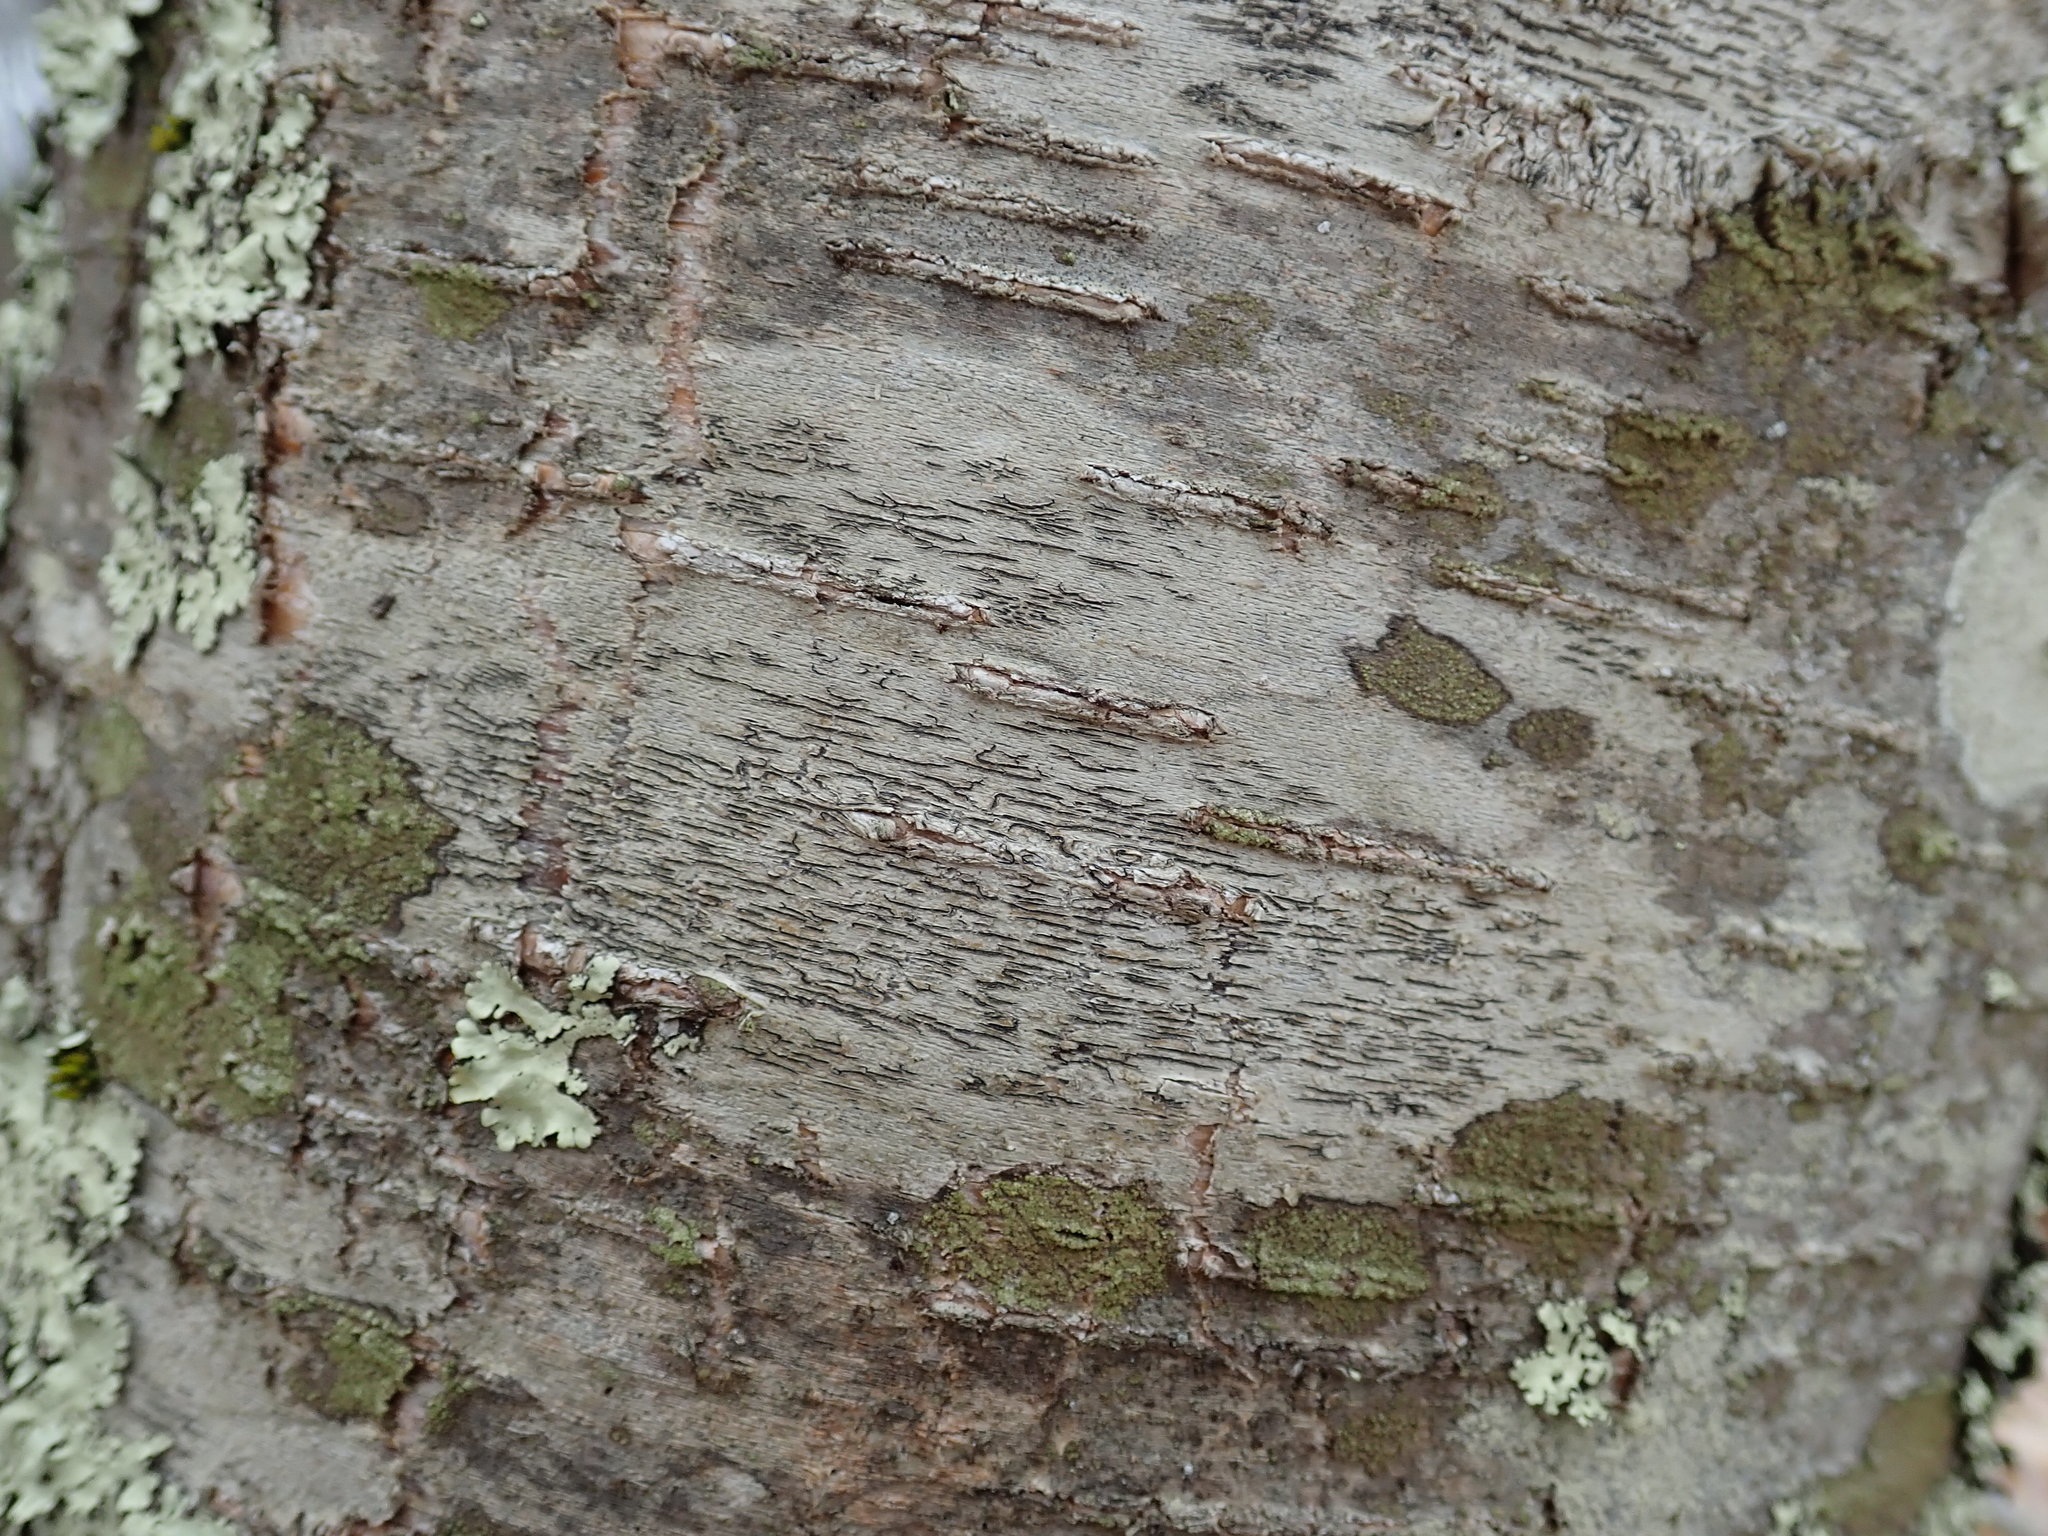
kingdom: Fungi
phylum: Ascomycota
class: Lecanoromycetes
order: Ostropales
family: Graphidaceae
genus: Graphis
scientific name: Graphis scripta
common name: Script lichen
